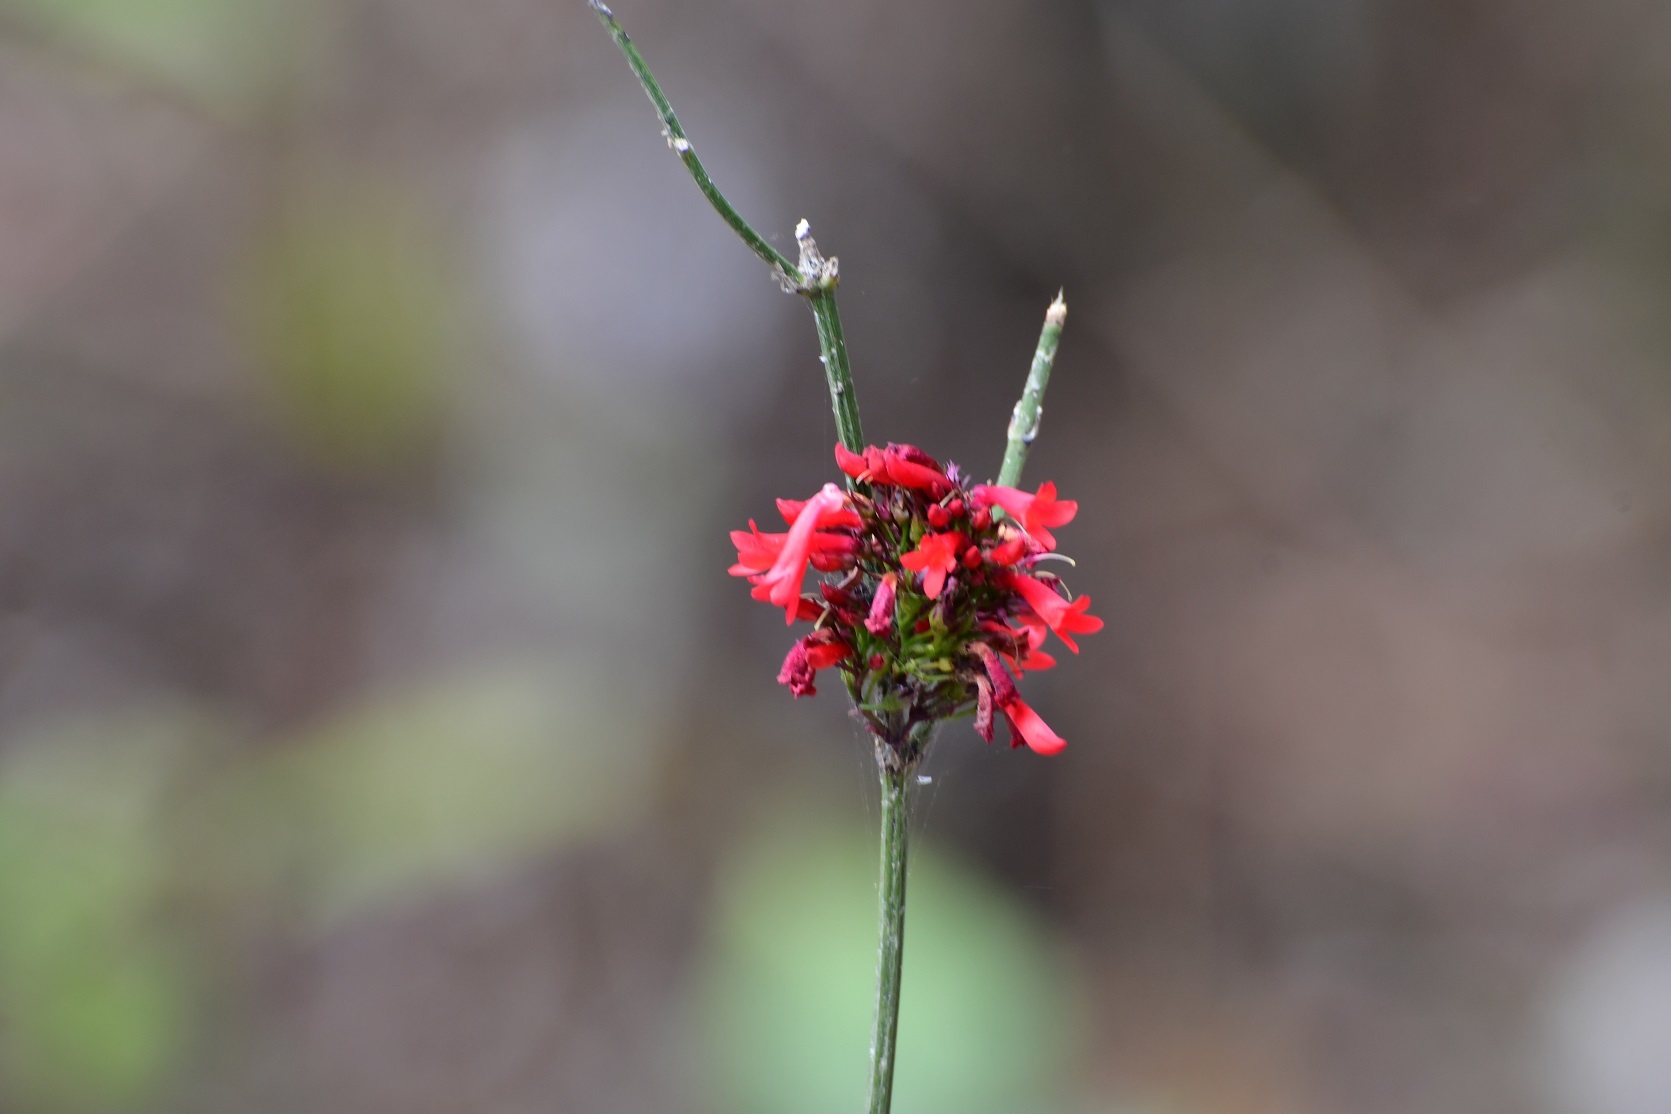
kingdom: Plantae
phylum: Tracheophyta
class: Magnoliopsida
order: Lamiales
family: Plantaginaceae
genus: Russelia
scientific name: Russelia verticillata
